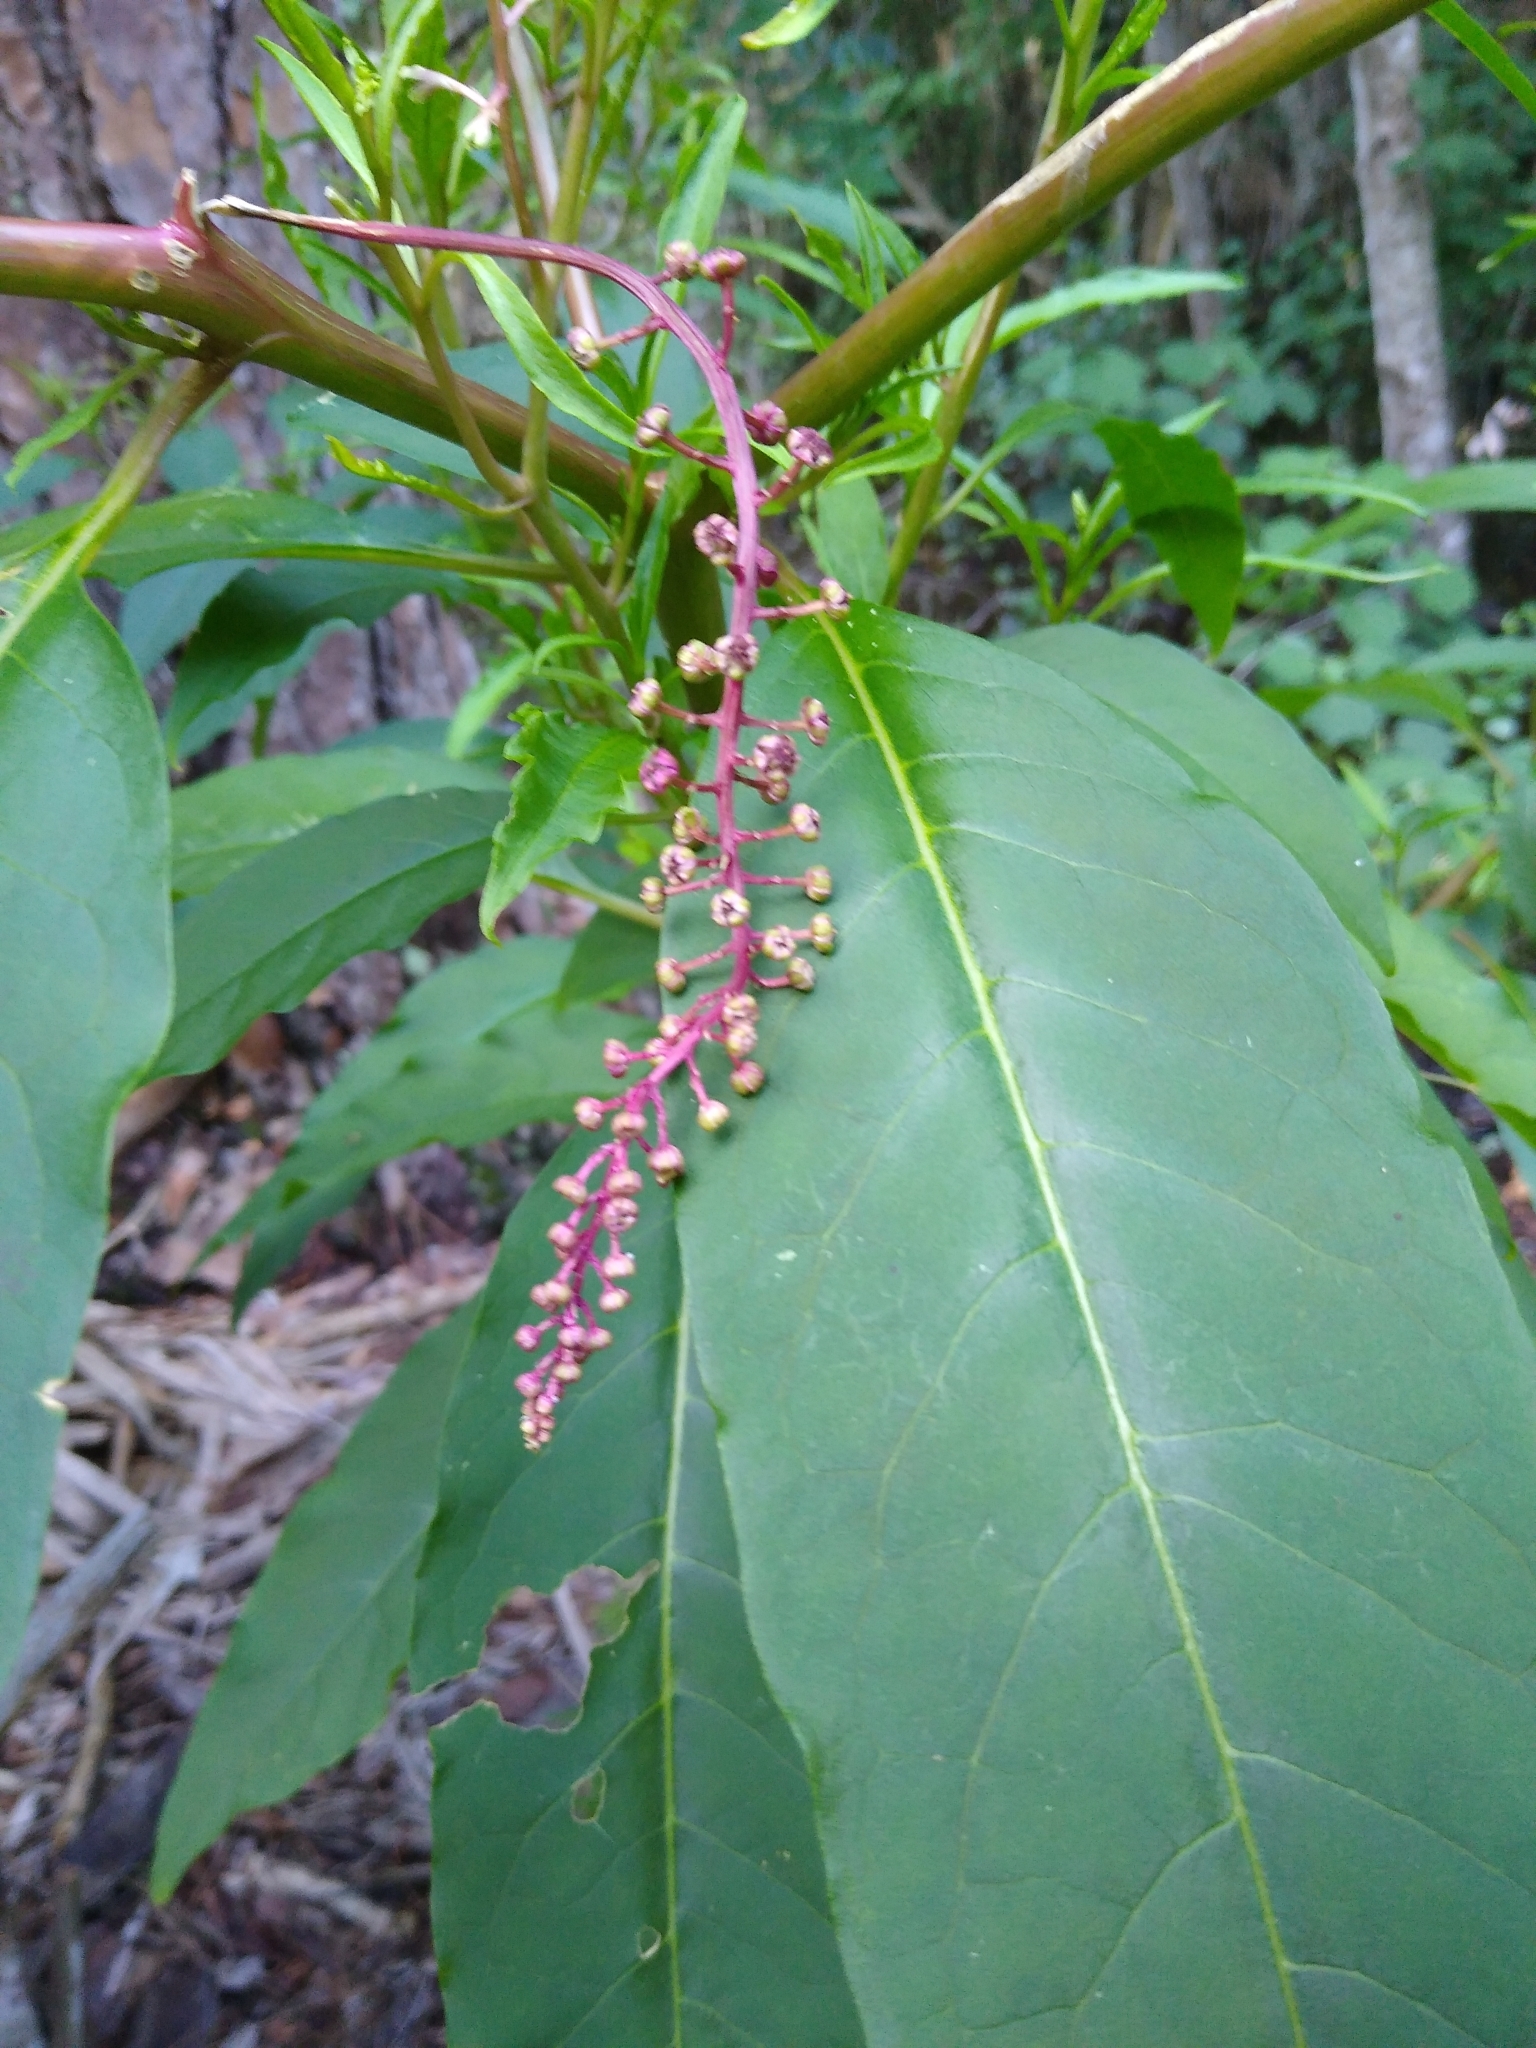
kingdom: Plantae
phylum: Tracheophyta
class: Magnoliopsida
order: Caryophyllales
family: Phytolaccaceae
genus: Phytolacca
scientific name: Phytolacca americana
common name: American pokeweed
